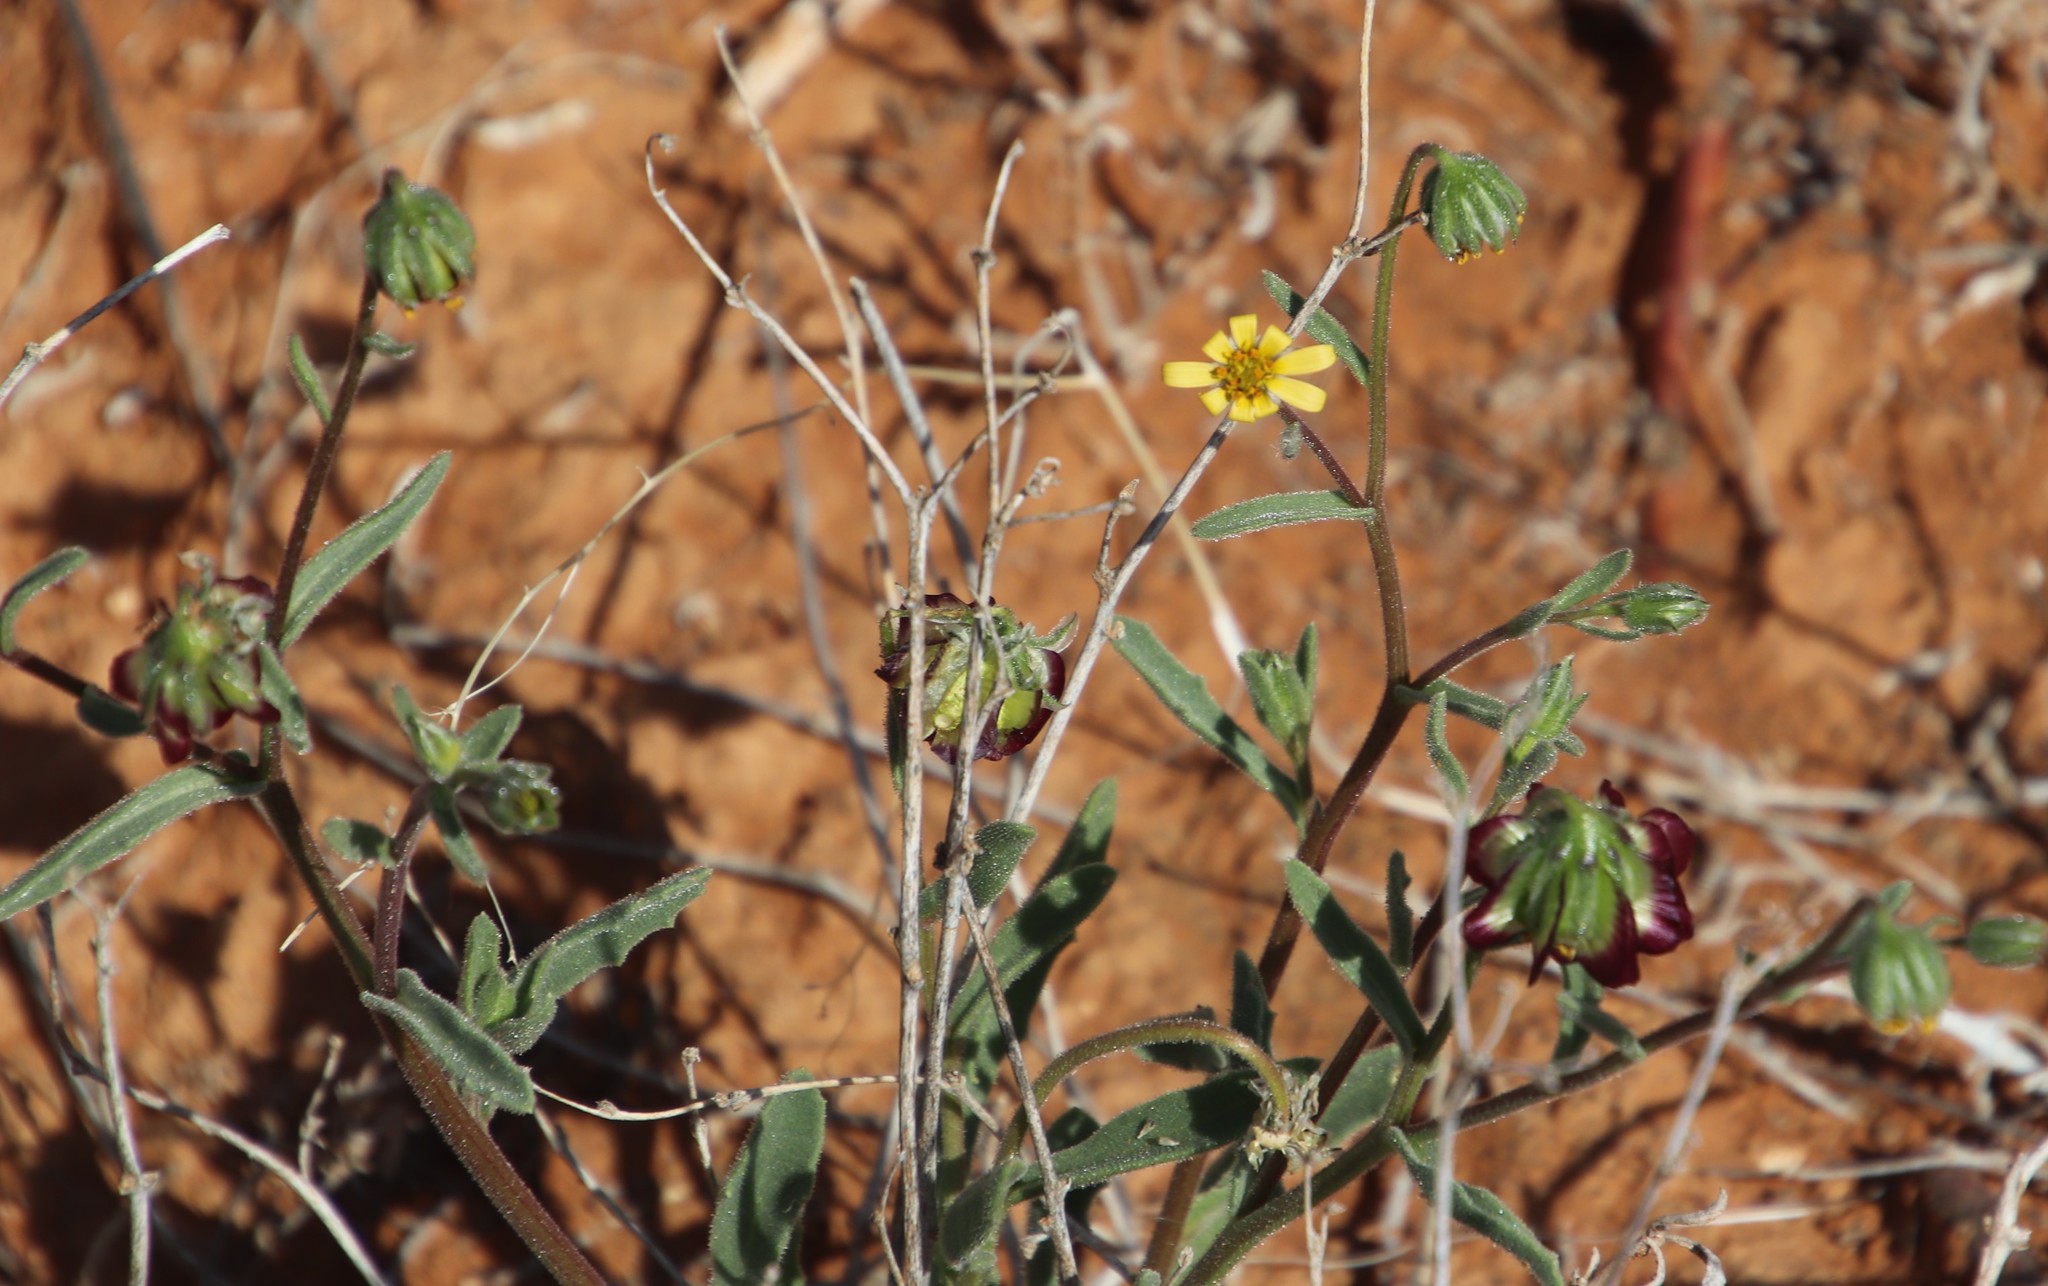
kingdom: Plantae
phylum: Tracheophyta
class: Magnoliopsida
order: Asterales
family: Asteraceae
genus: Osteospermum
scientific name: Osteospermum monstrosum
